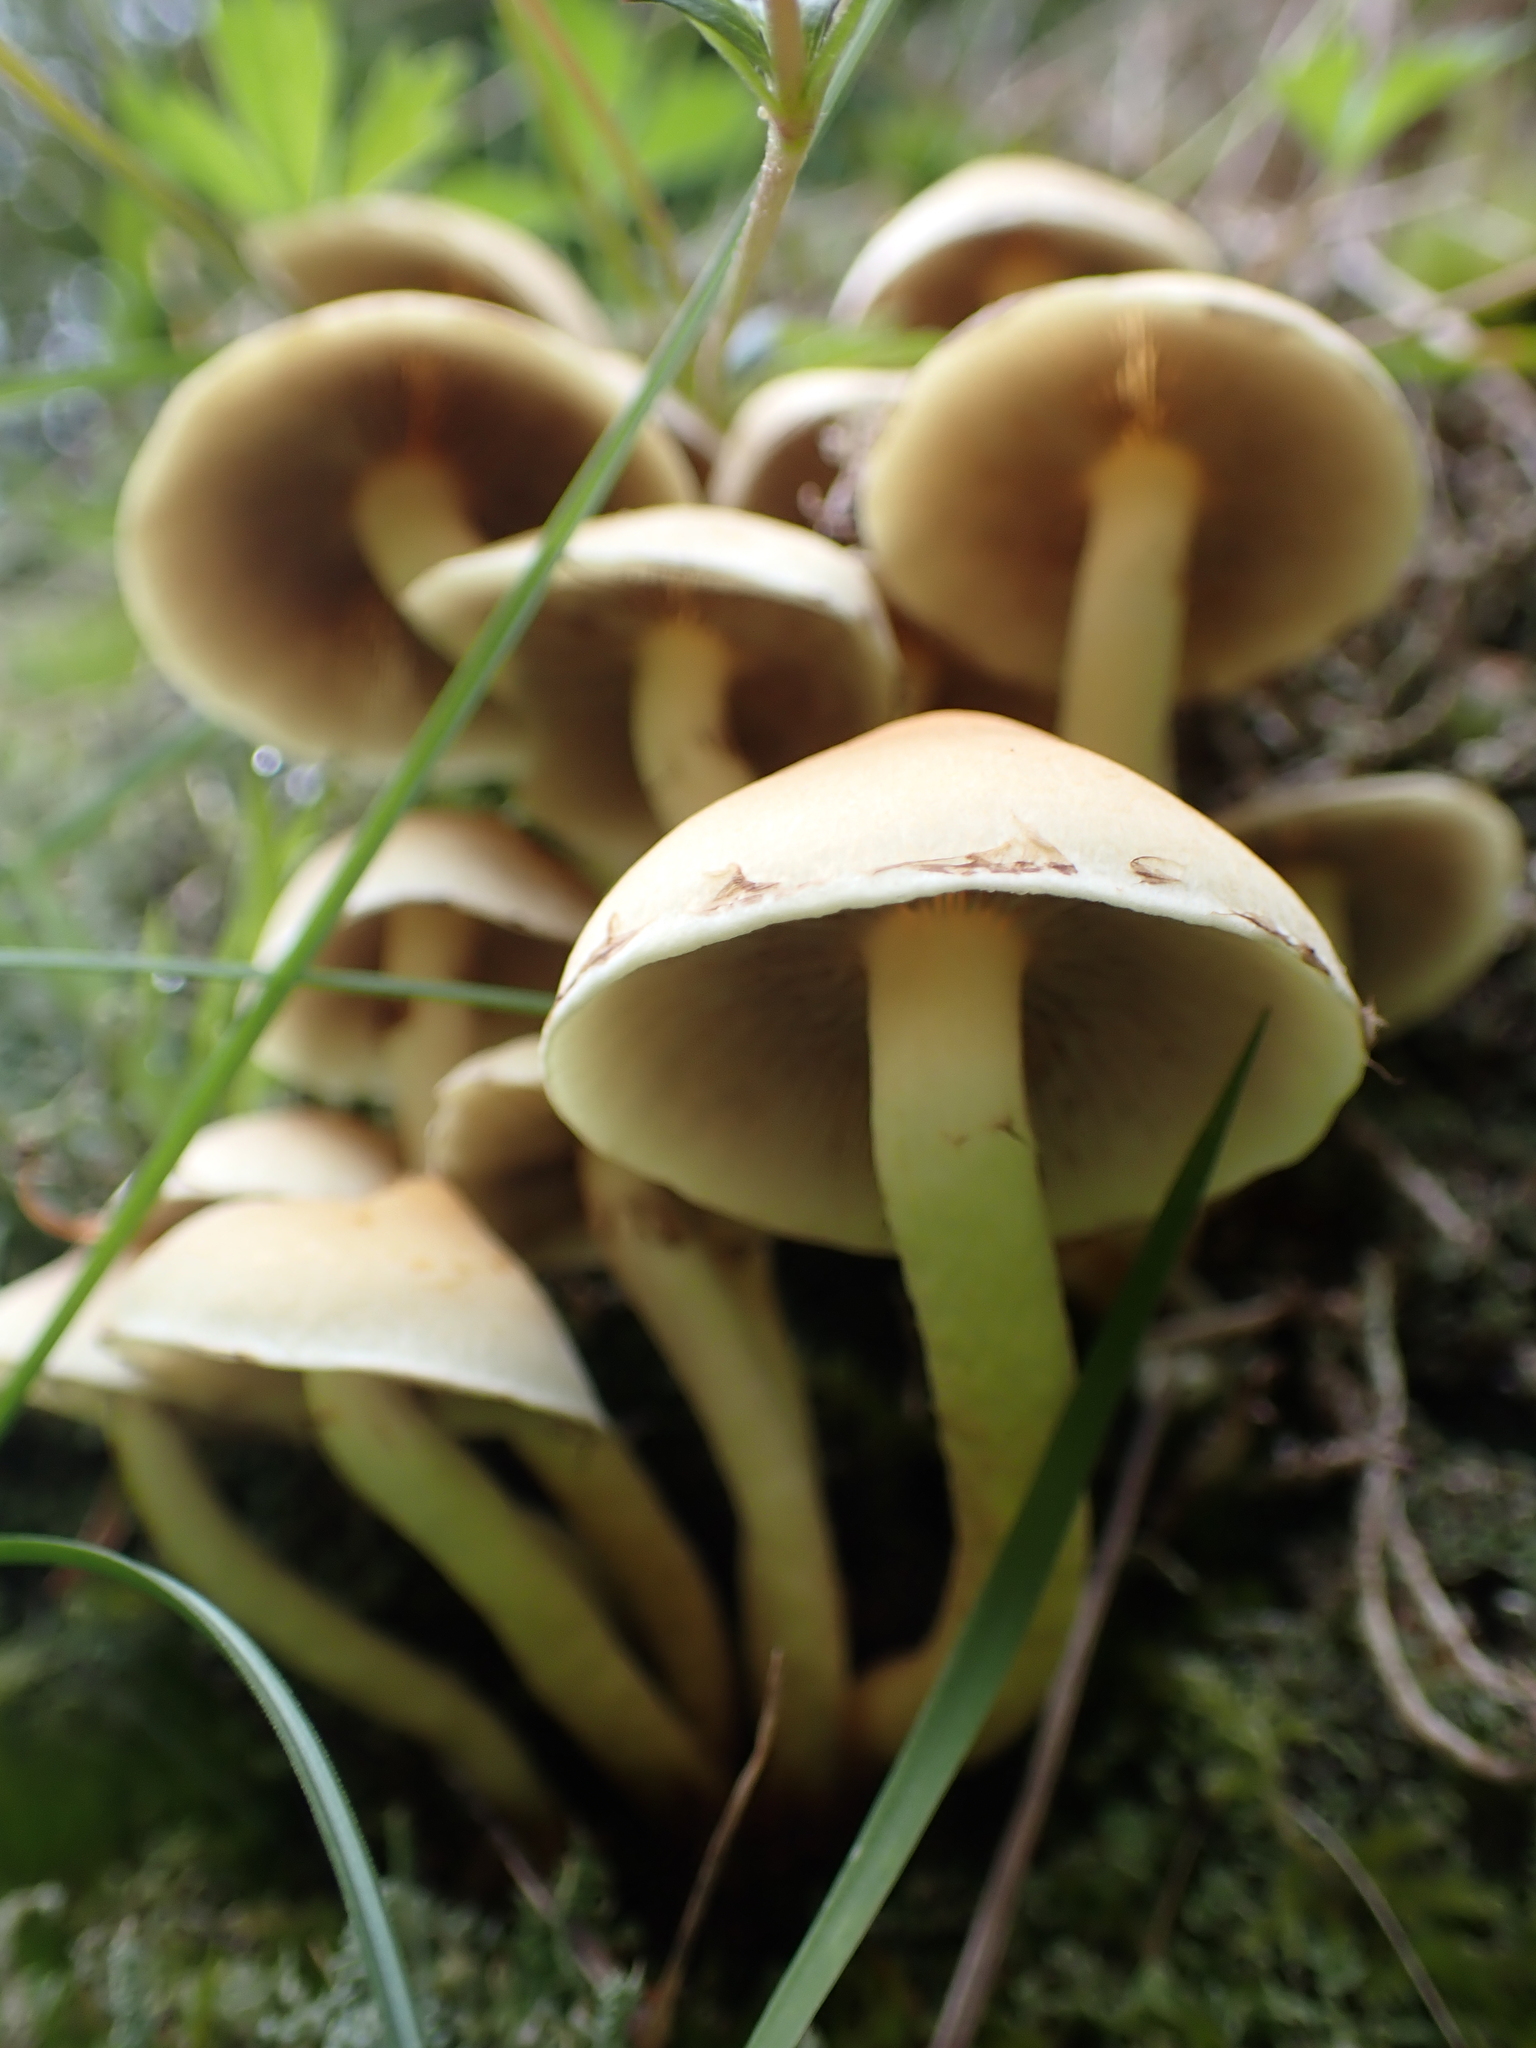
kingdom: Fungi
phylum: Basidiomycota
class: Agaricomycetes
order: Agaricales
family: Strophariaceae
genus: Hypholoma
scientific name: Hypholoma fasciculare
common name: Sulphur tuft
